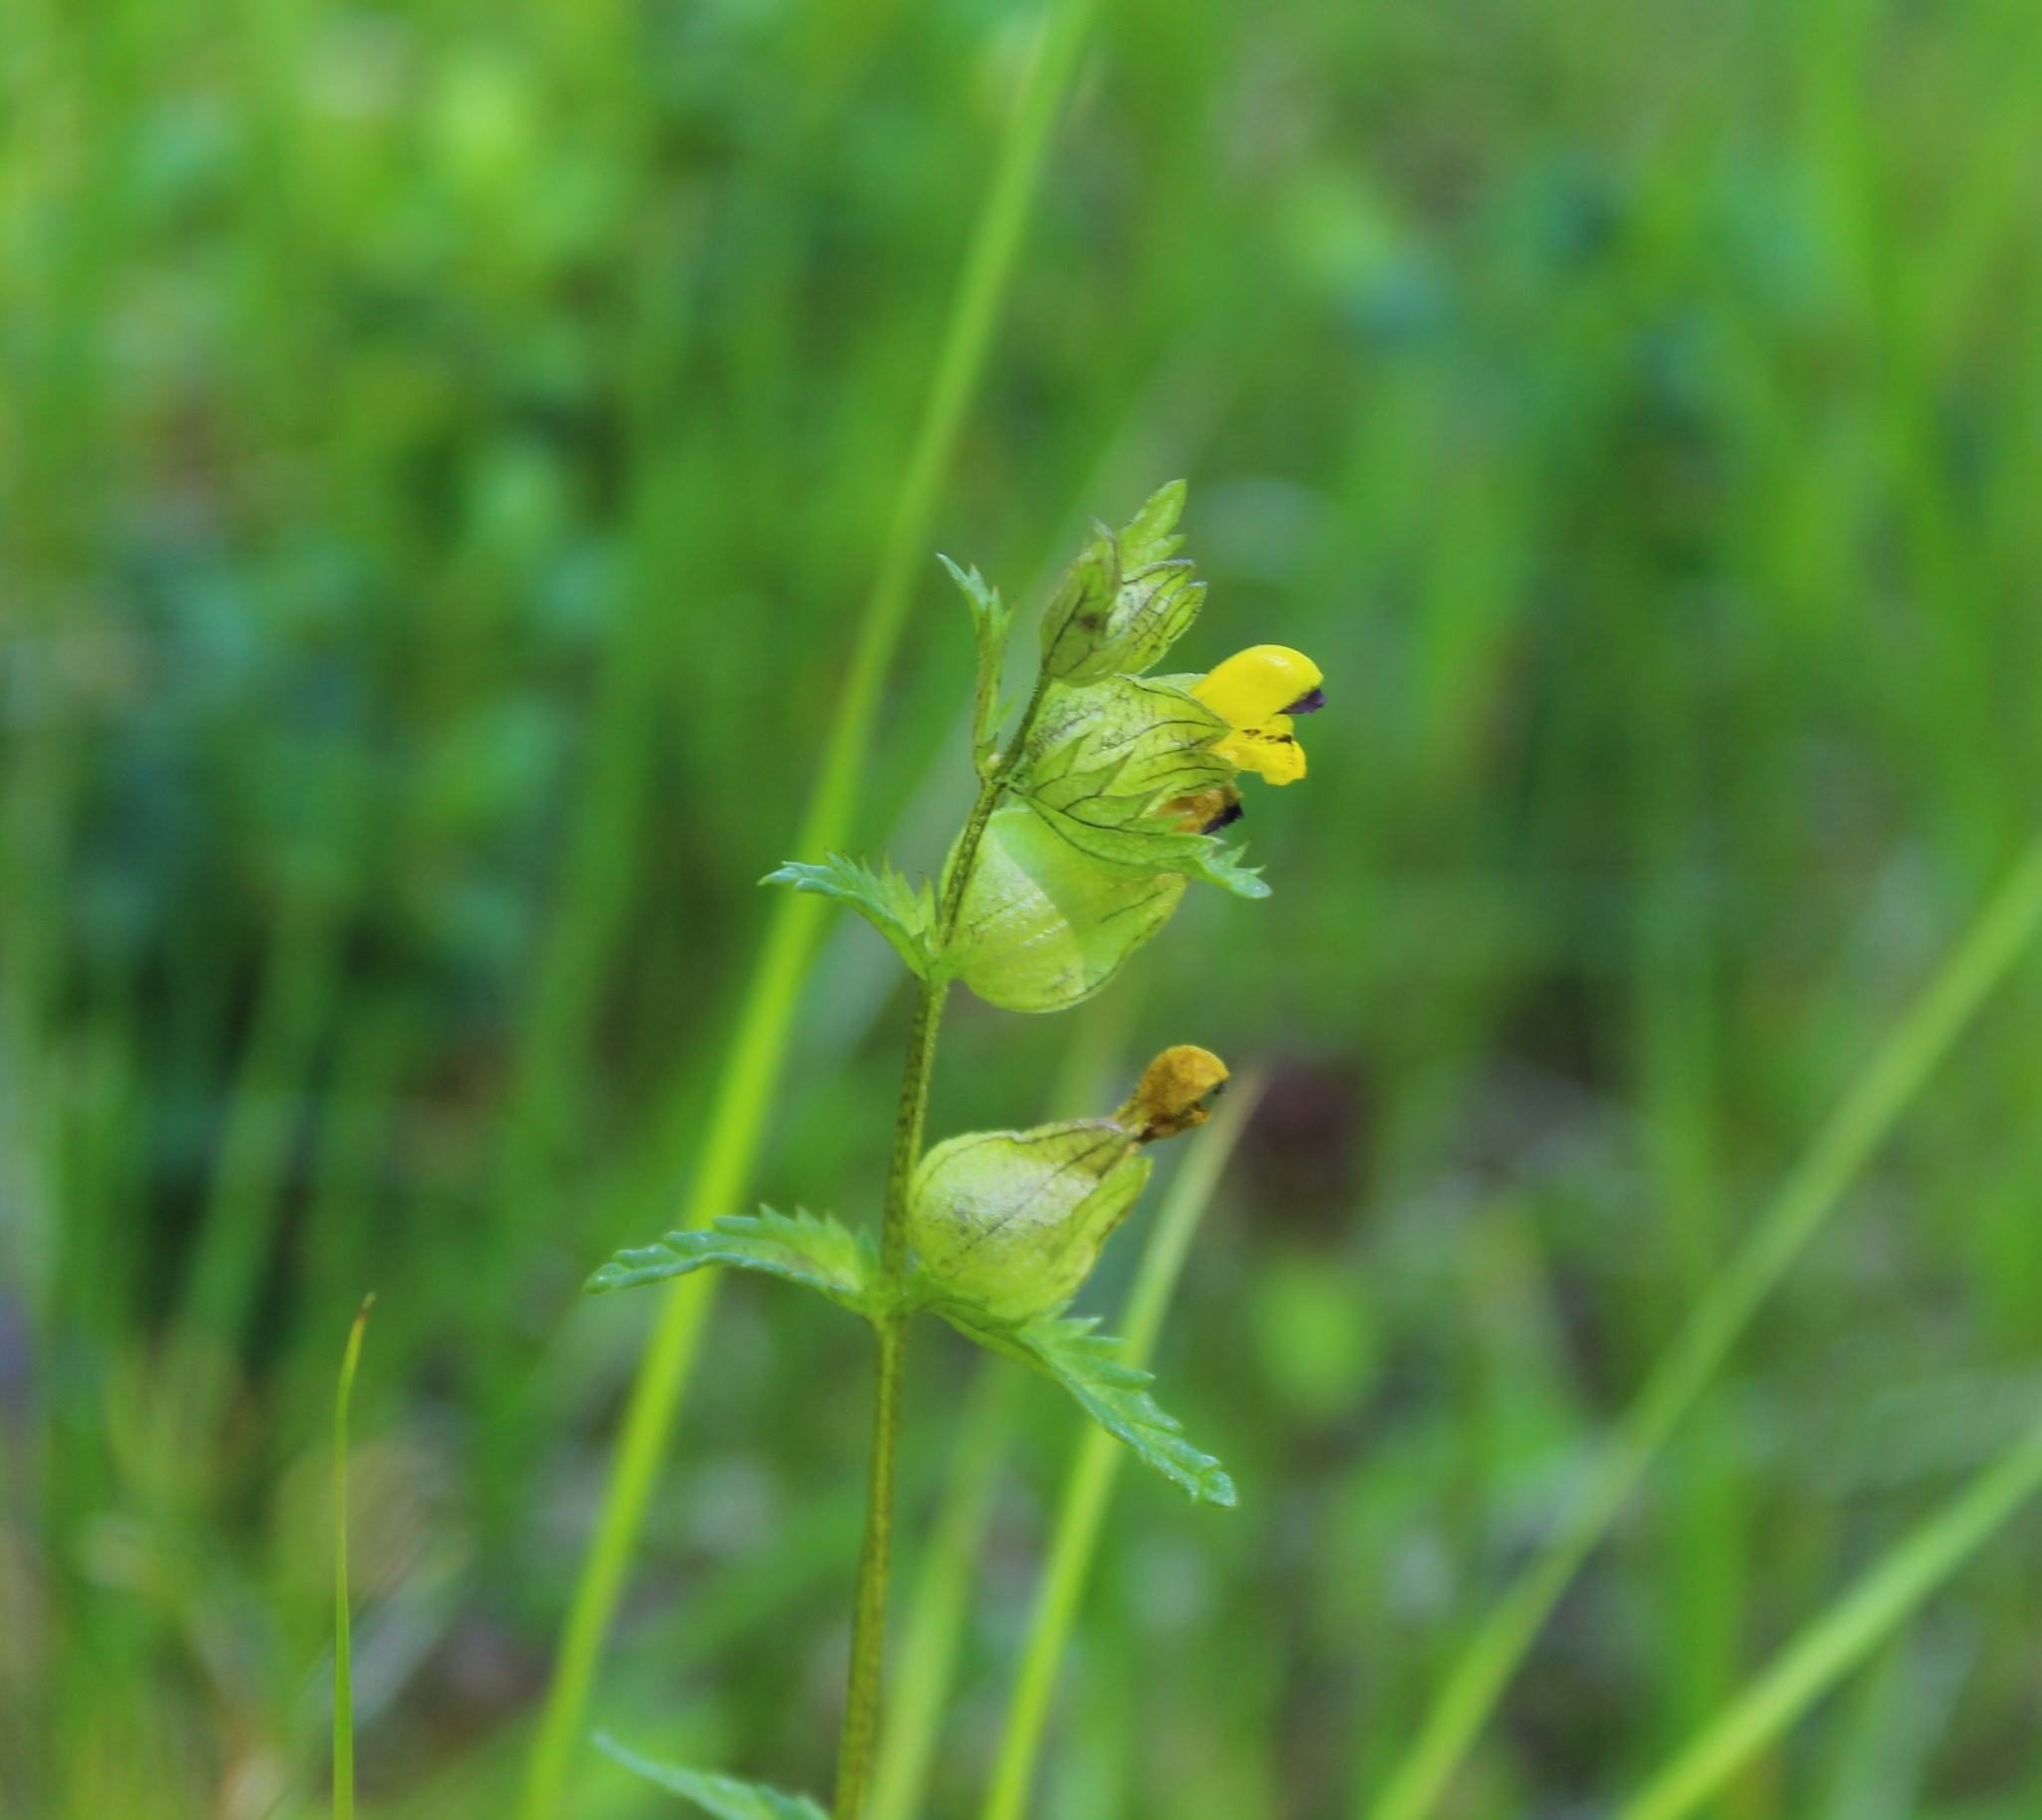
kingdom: Plantae
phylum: Tracheophyta
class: Magnoliopsida
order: Lamiales
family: Orobanchaceae
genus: Rhinanthus
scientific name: Rhinanthus minor
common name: Yellow-rattle
